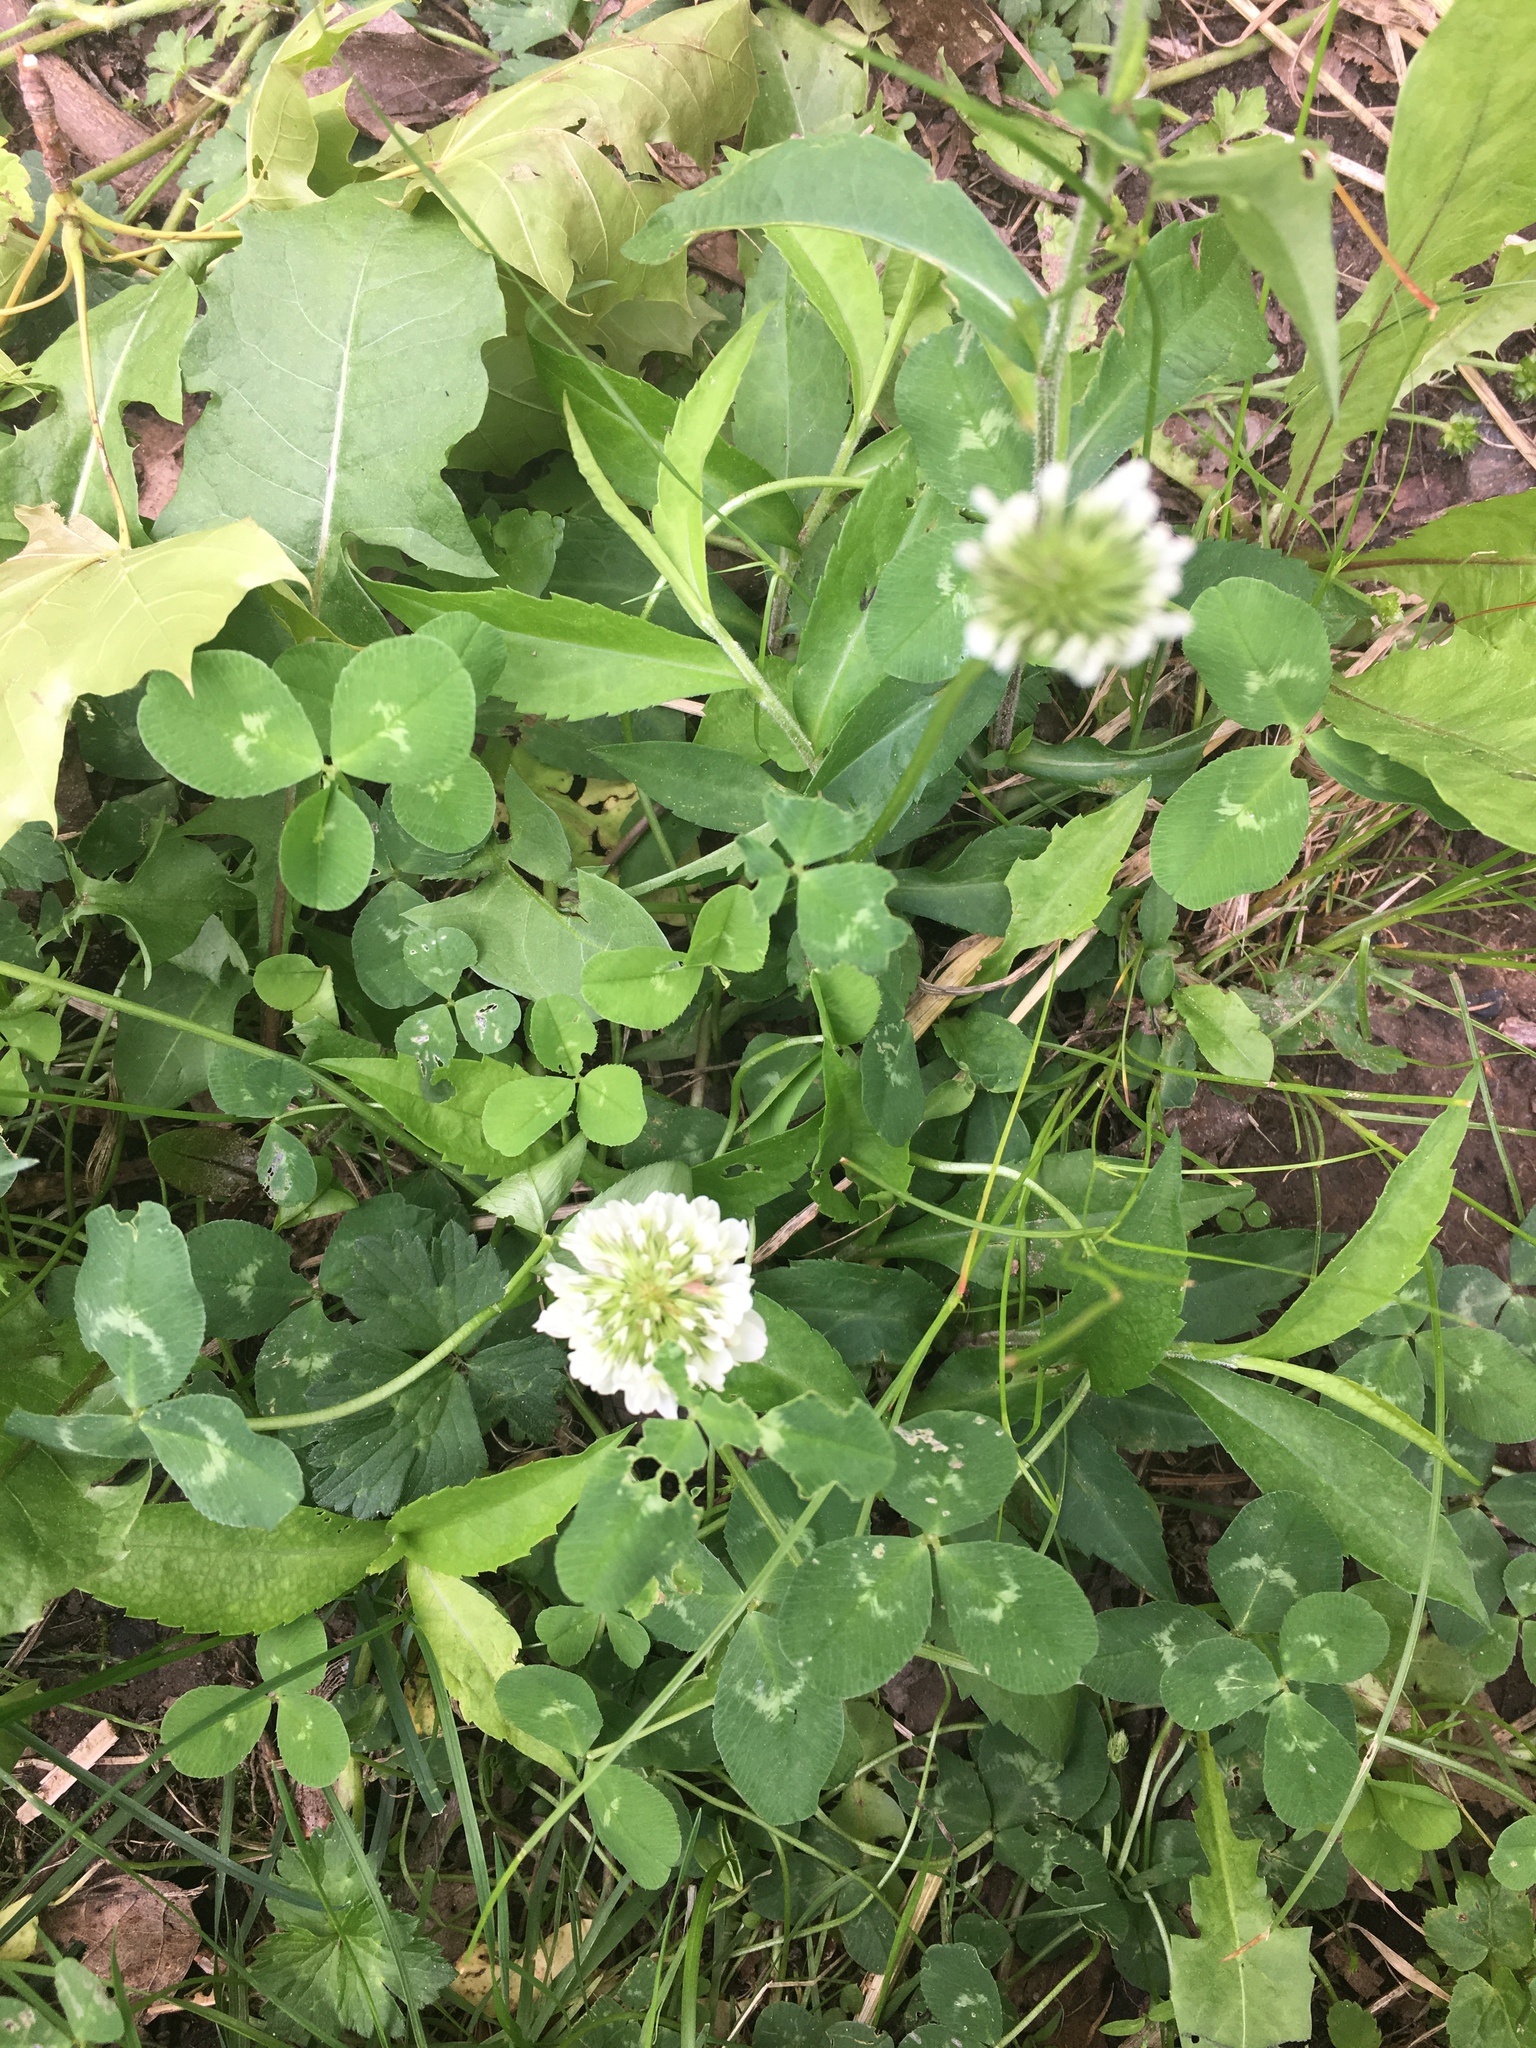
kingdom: Plantae
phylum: Tracheophyta
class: Magnoliopsida
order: Fabales
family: Fabaceae
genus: Trifolium
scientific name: Trifolium repens
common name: White clover
